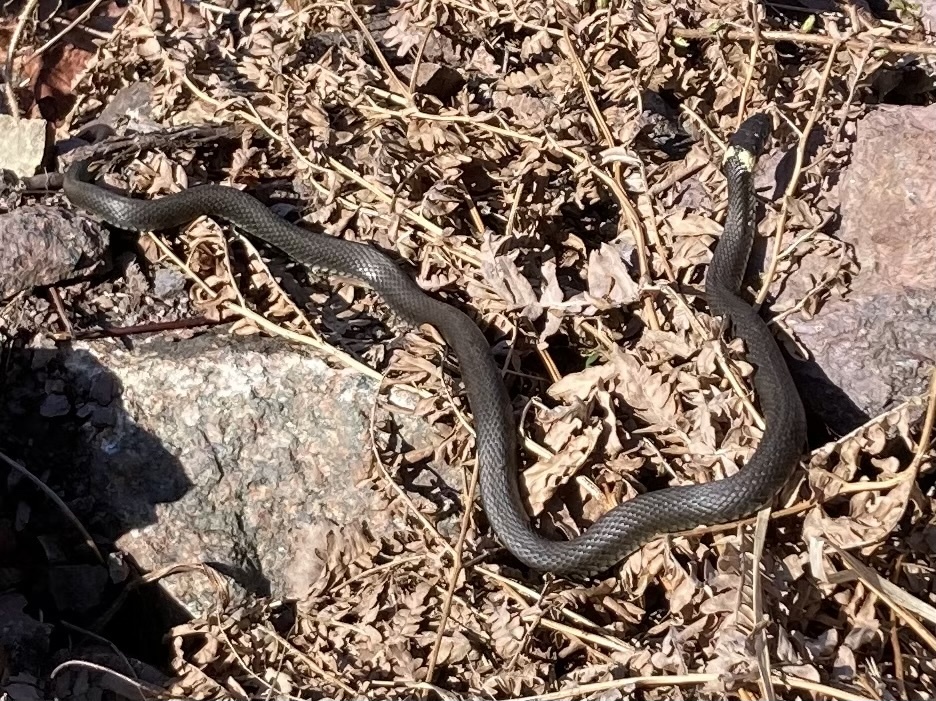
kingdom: Animalia
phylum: Chordata
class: Squamata
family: Colubridae
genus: Natrix
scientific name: Natrix natrix
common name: Grass snake
